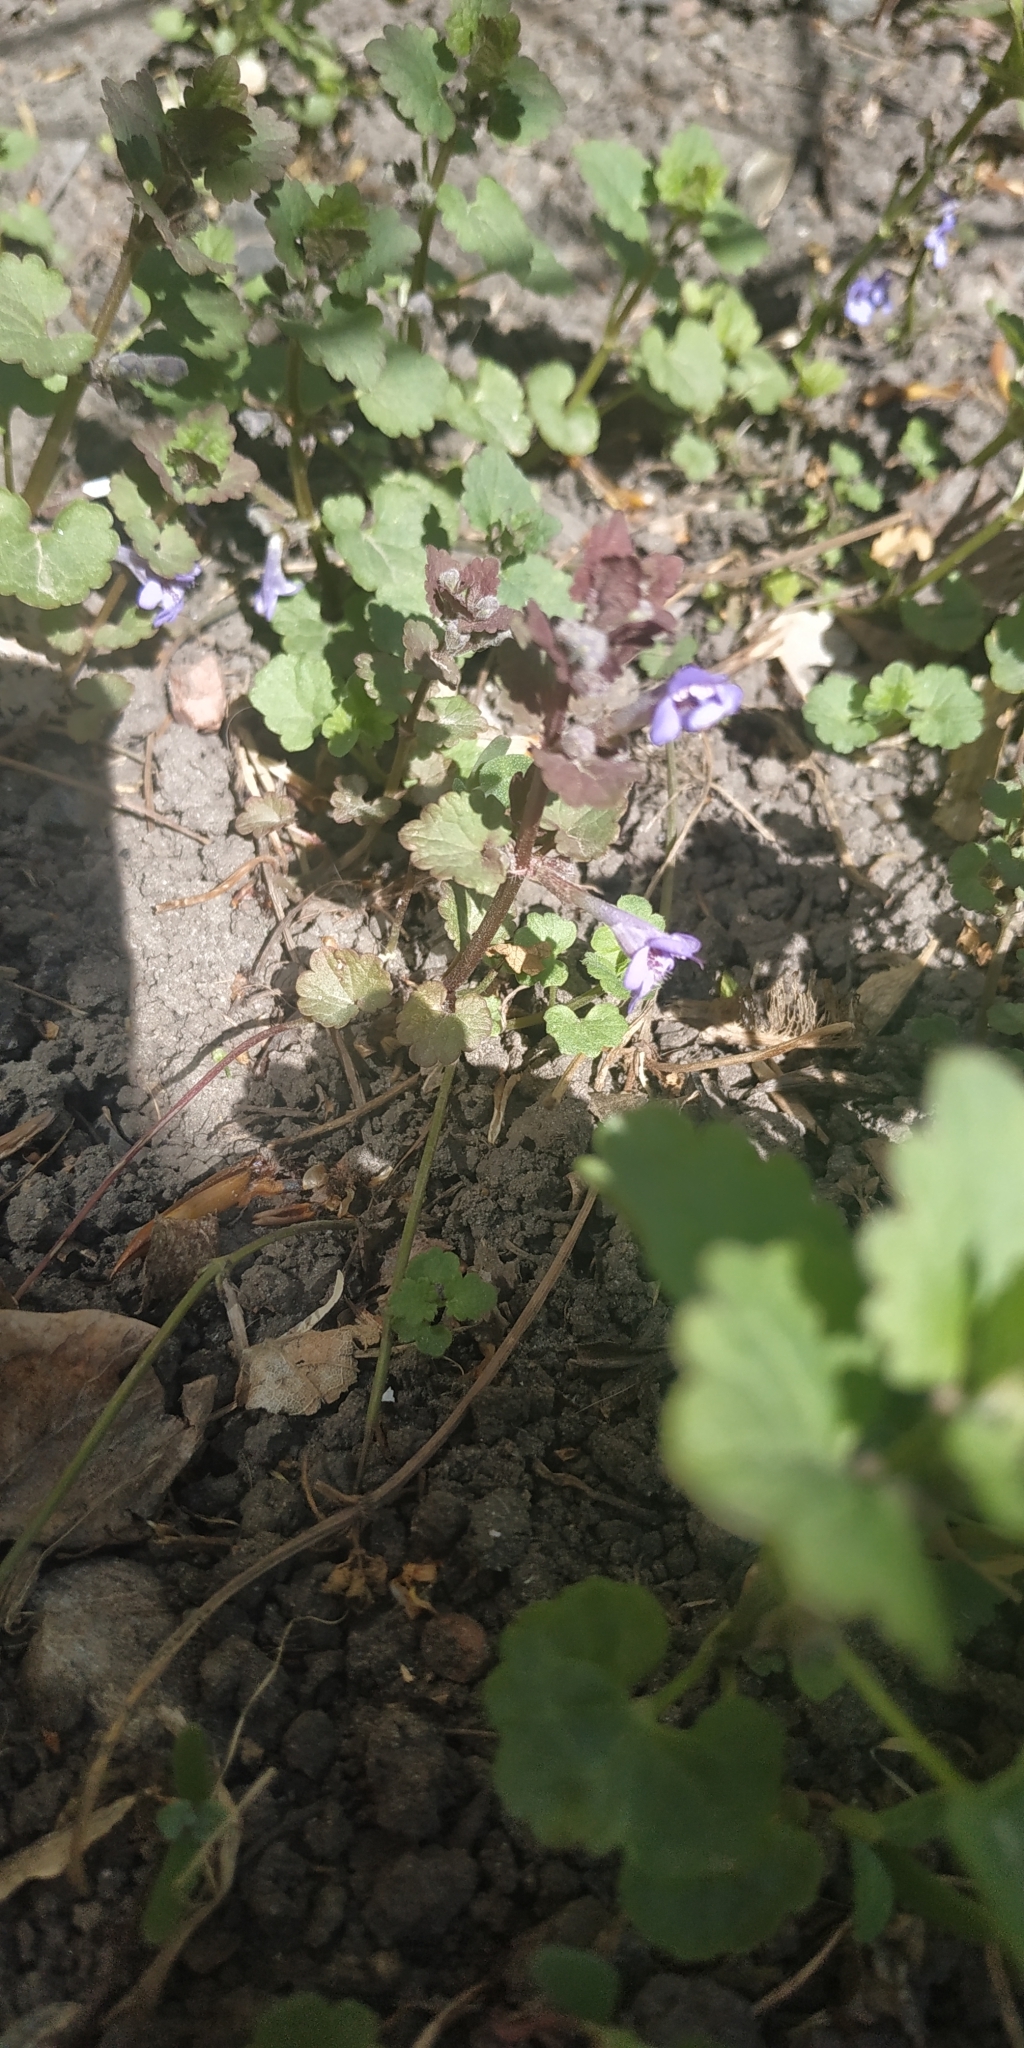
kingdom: Plantae
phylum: Tracheophyta
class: Magnoliopsida
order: Lamiales
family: Lamiaceae
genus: Glechoma
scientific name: Glechoma hederacea
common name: Ground ivy
